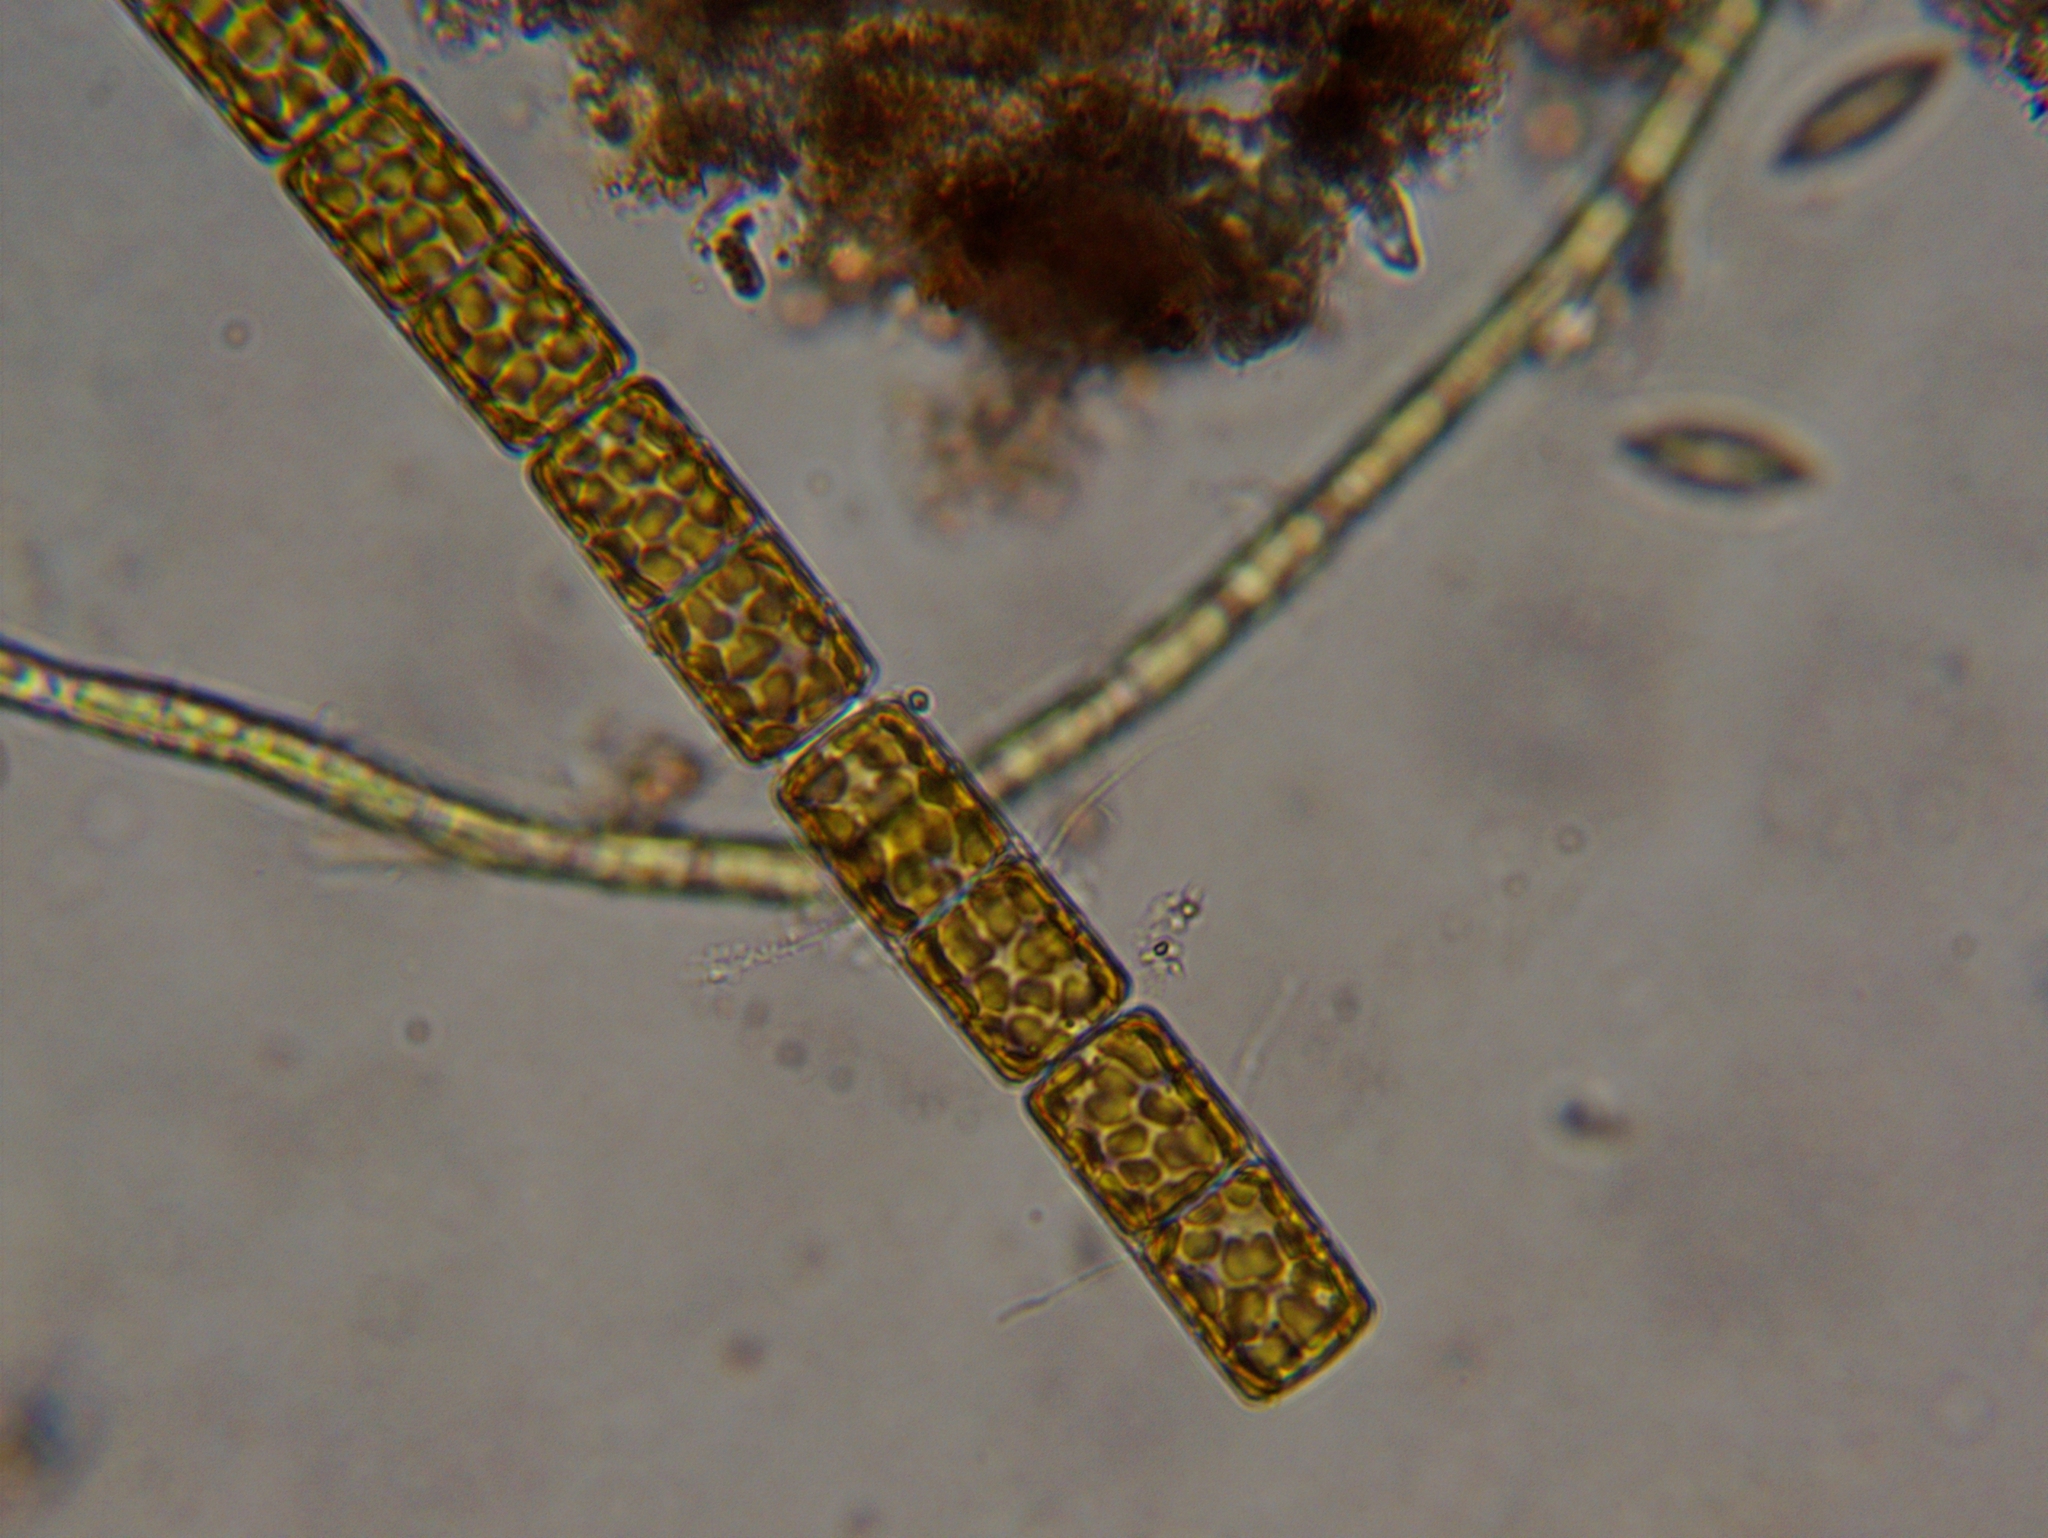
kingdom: Chromista
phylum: Ochrophyta
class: Bacillariophyceae
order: Melosirales
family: Melosiraceae
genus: Melosira
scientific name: Melosira varians
